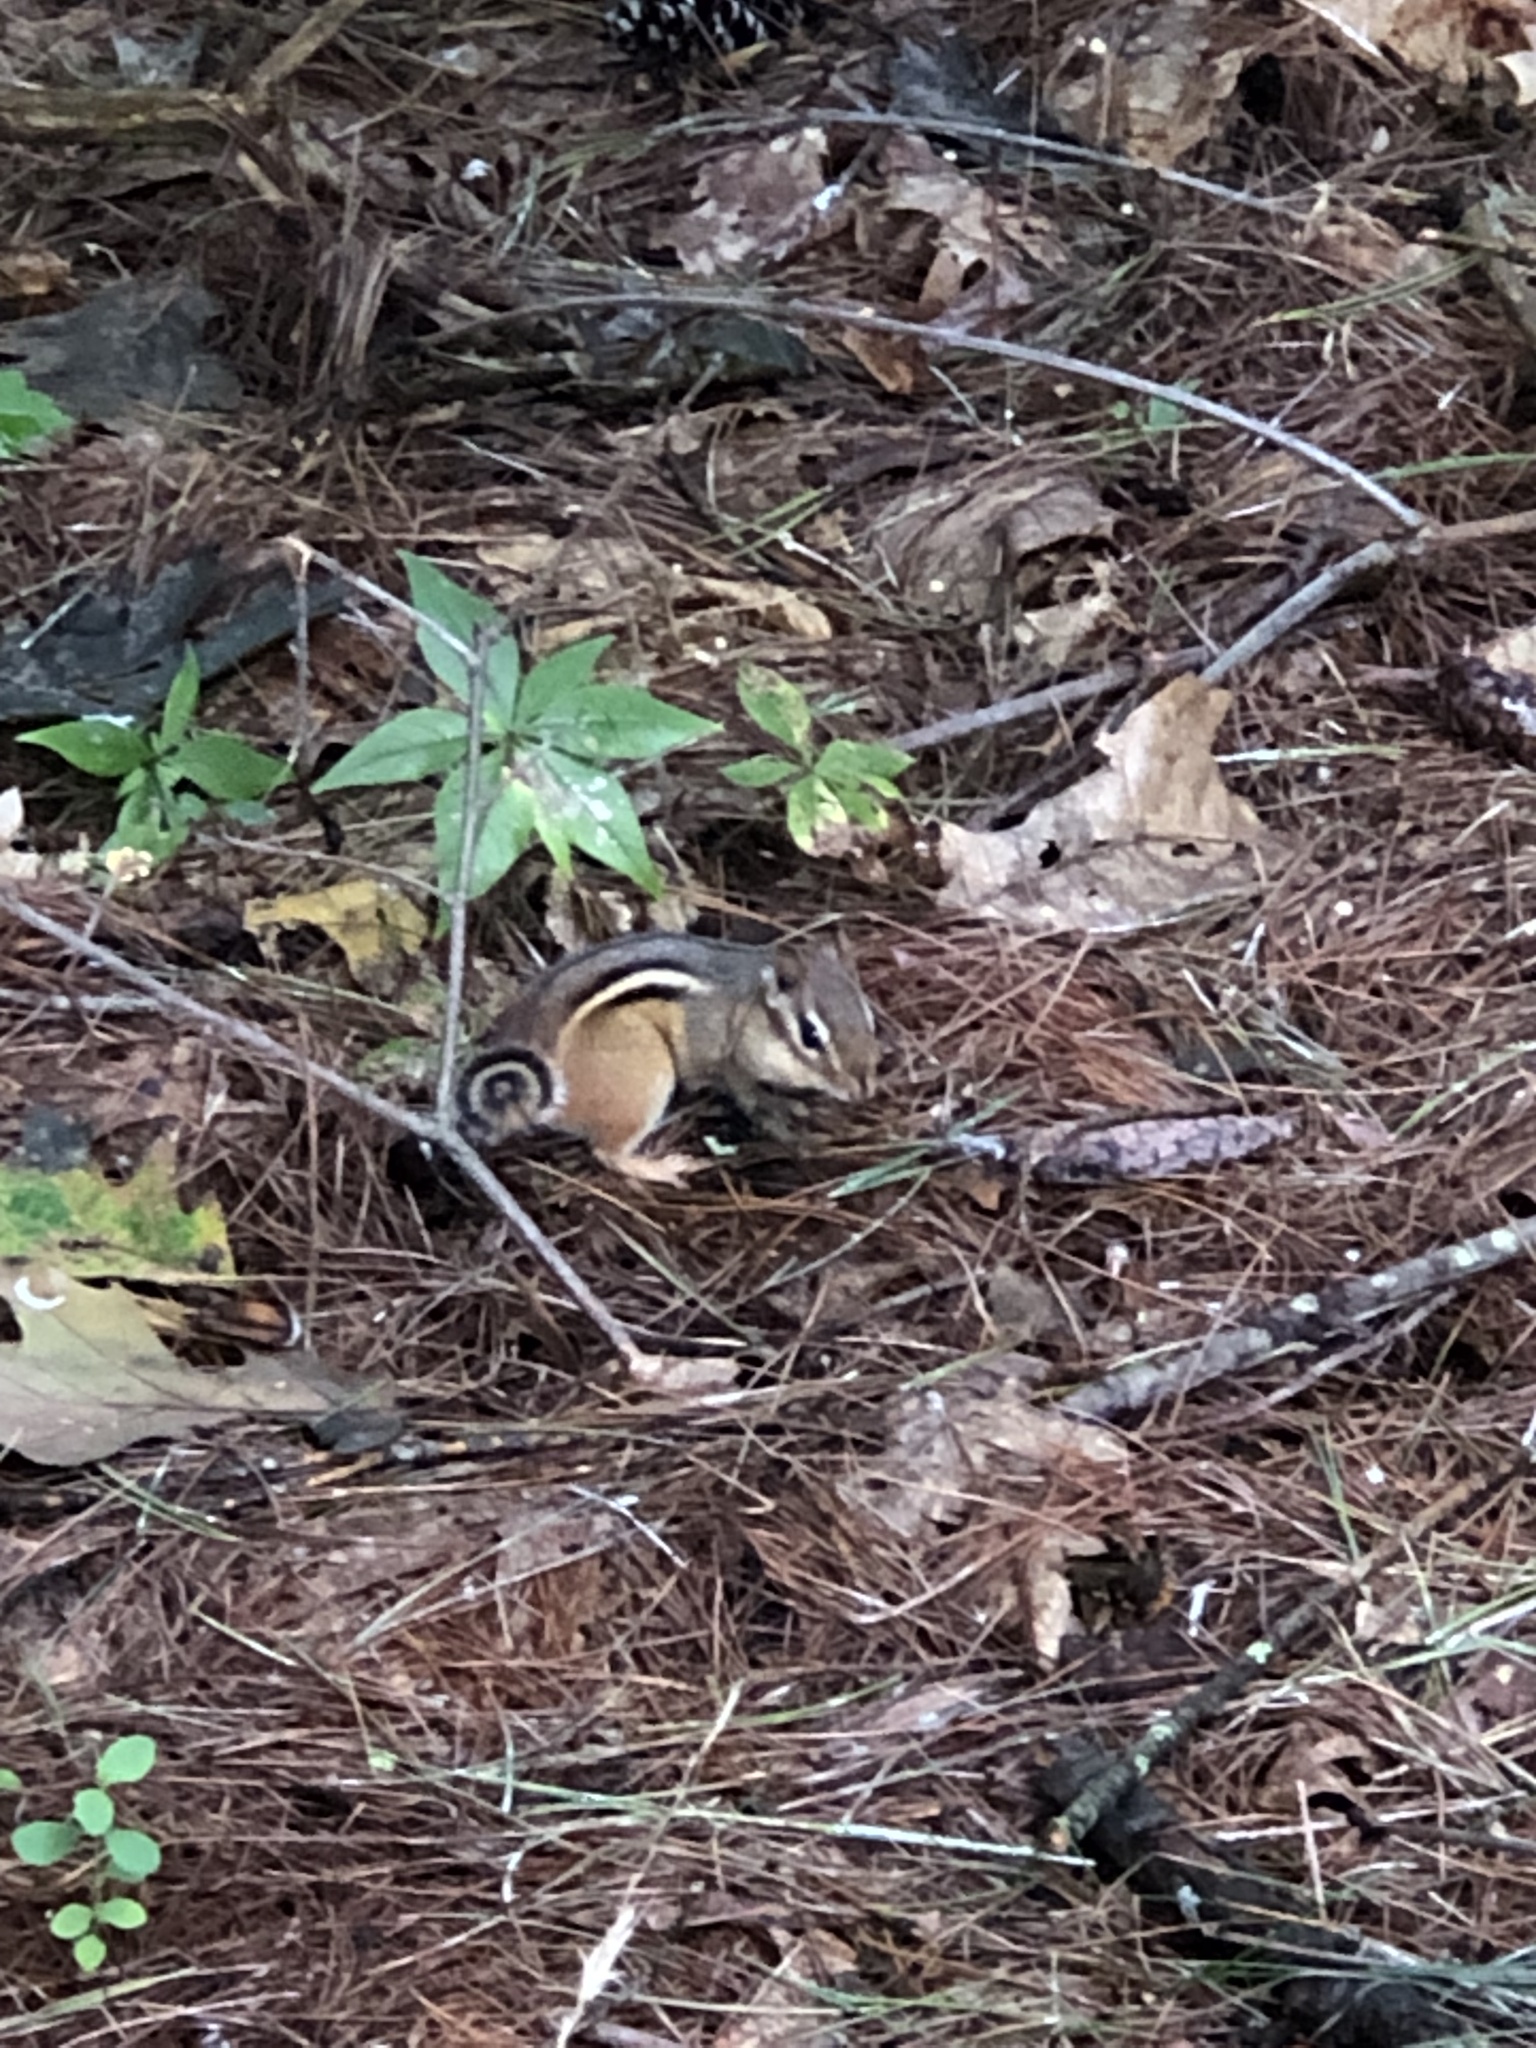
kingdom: Animalia
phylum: Chordata
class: Mammalia
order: Rodentia
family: Sciuridae
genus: Tamias
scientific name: Tamias striatus
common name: Eastern chipmunk
